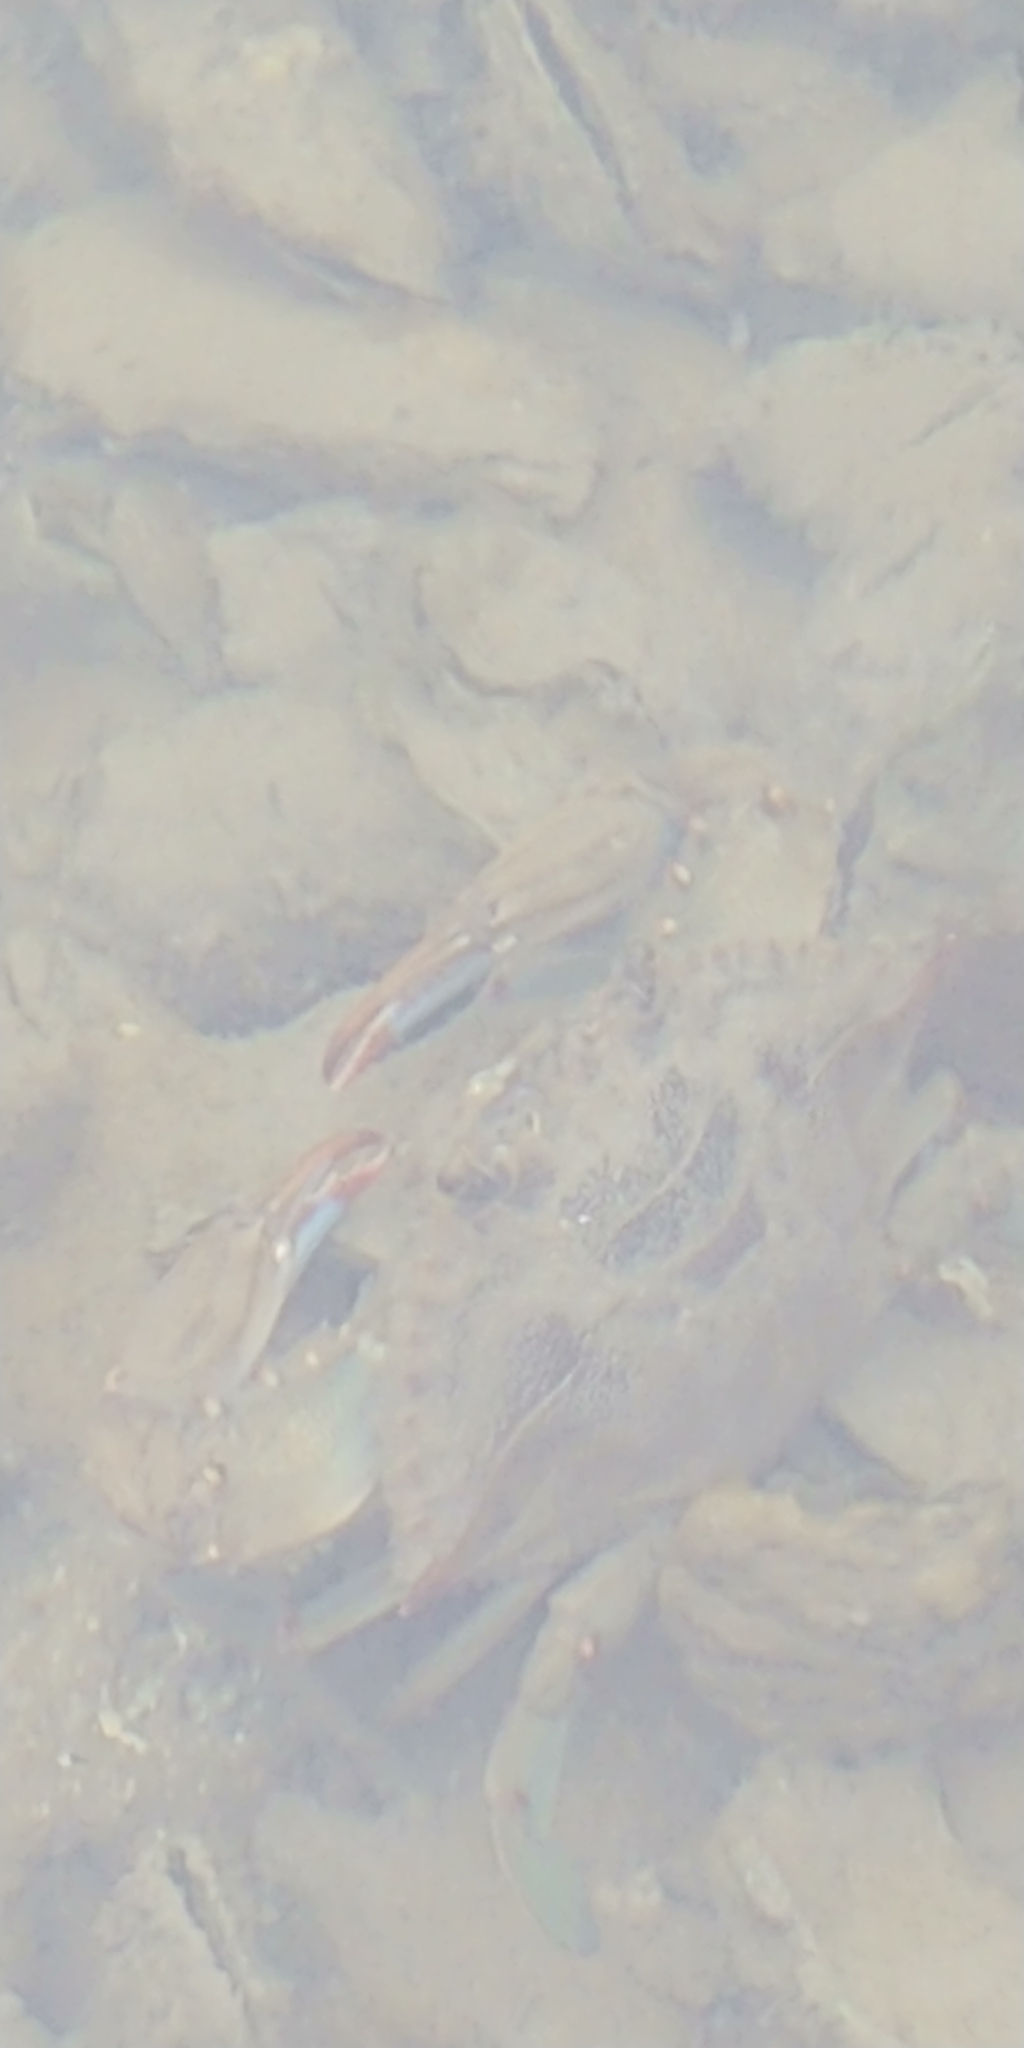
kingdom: Animalia
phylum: Arthropoda
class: Malacostraca
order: Decapoda
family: Portunidae
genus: Callinectes
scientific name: Callinectes sapidus
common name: Blue crab
